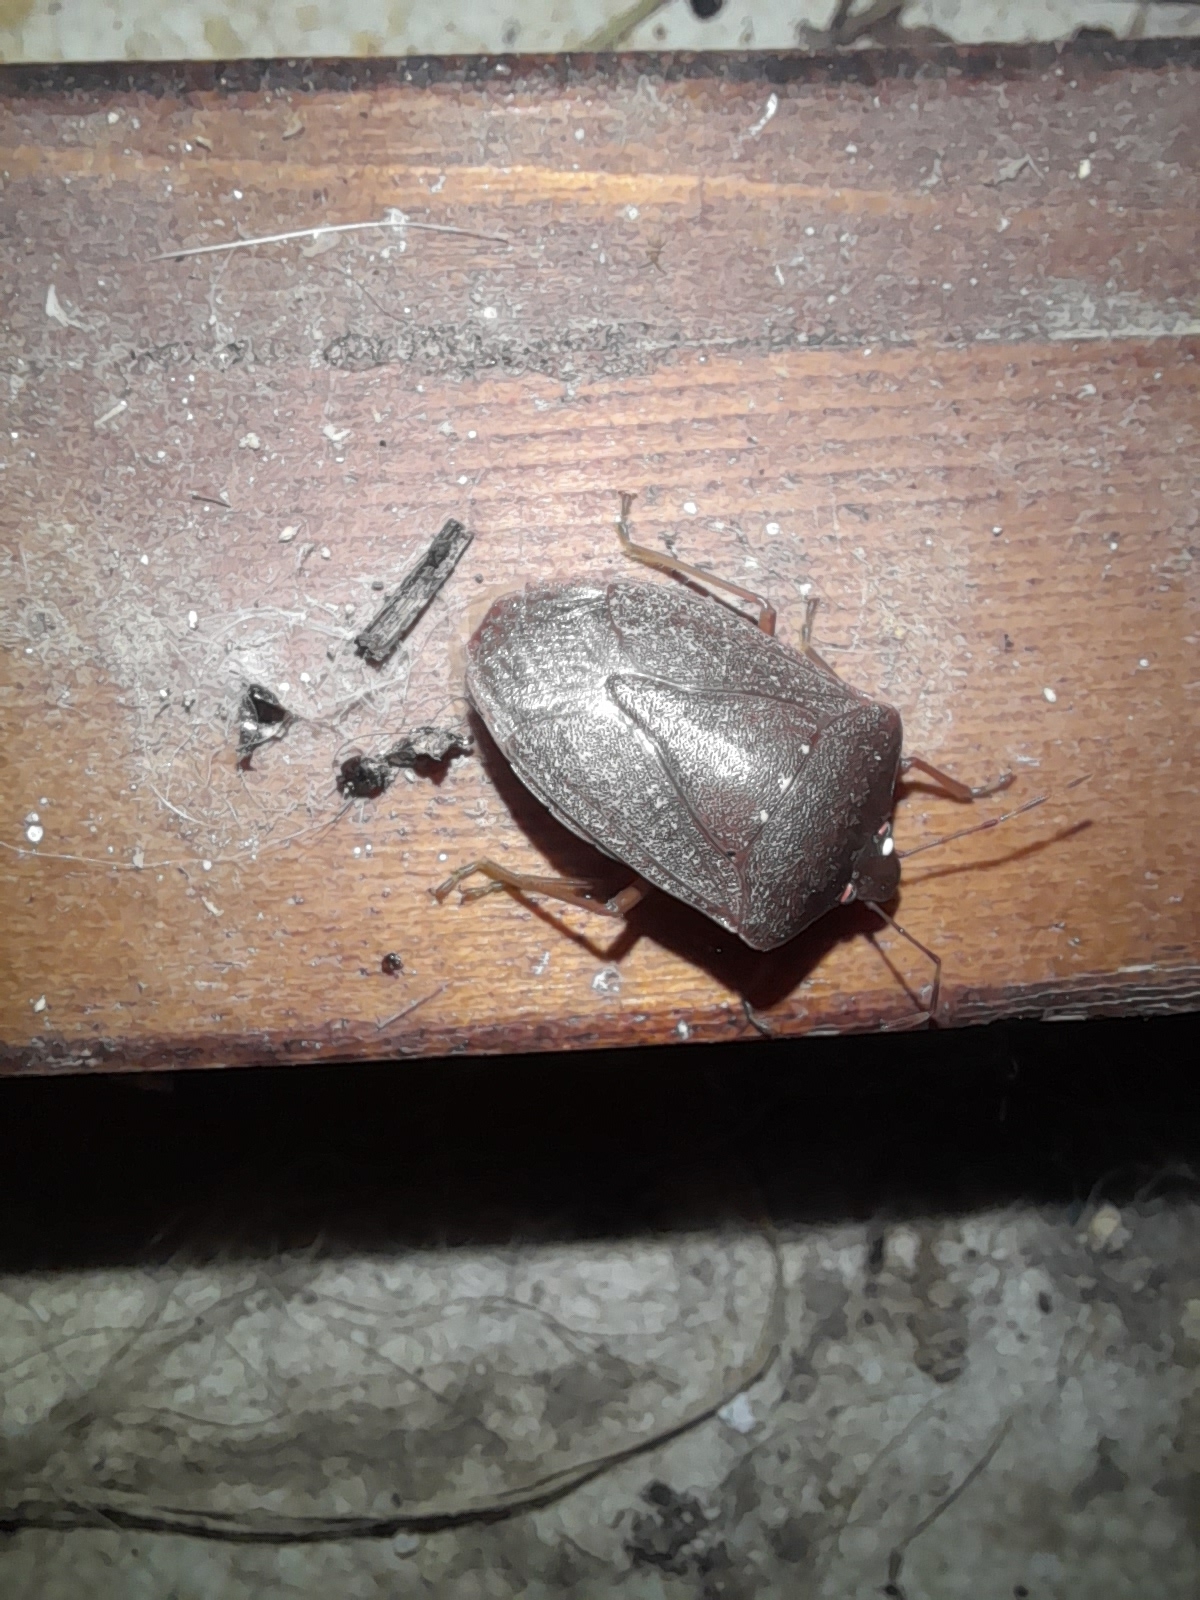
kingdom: Animalia
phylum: Arthropoda
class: Insecta
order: Hemiptera
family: Pentatomidae
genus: Nezara
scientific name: Nezara viridula
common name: Southern green stink bug
